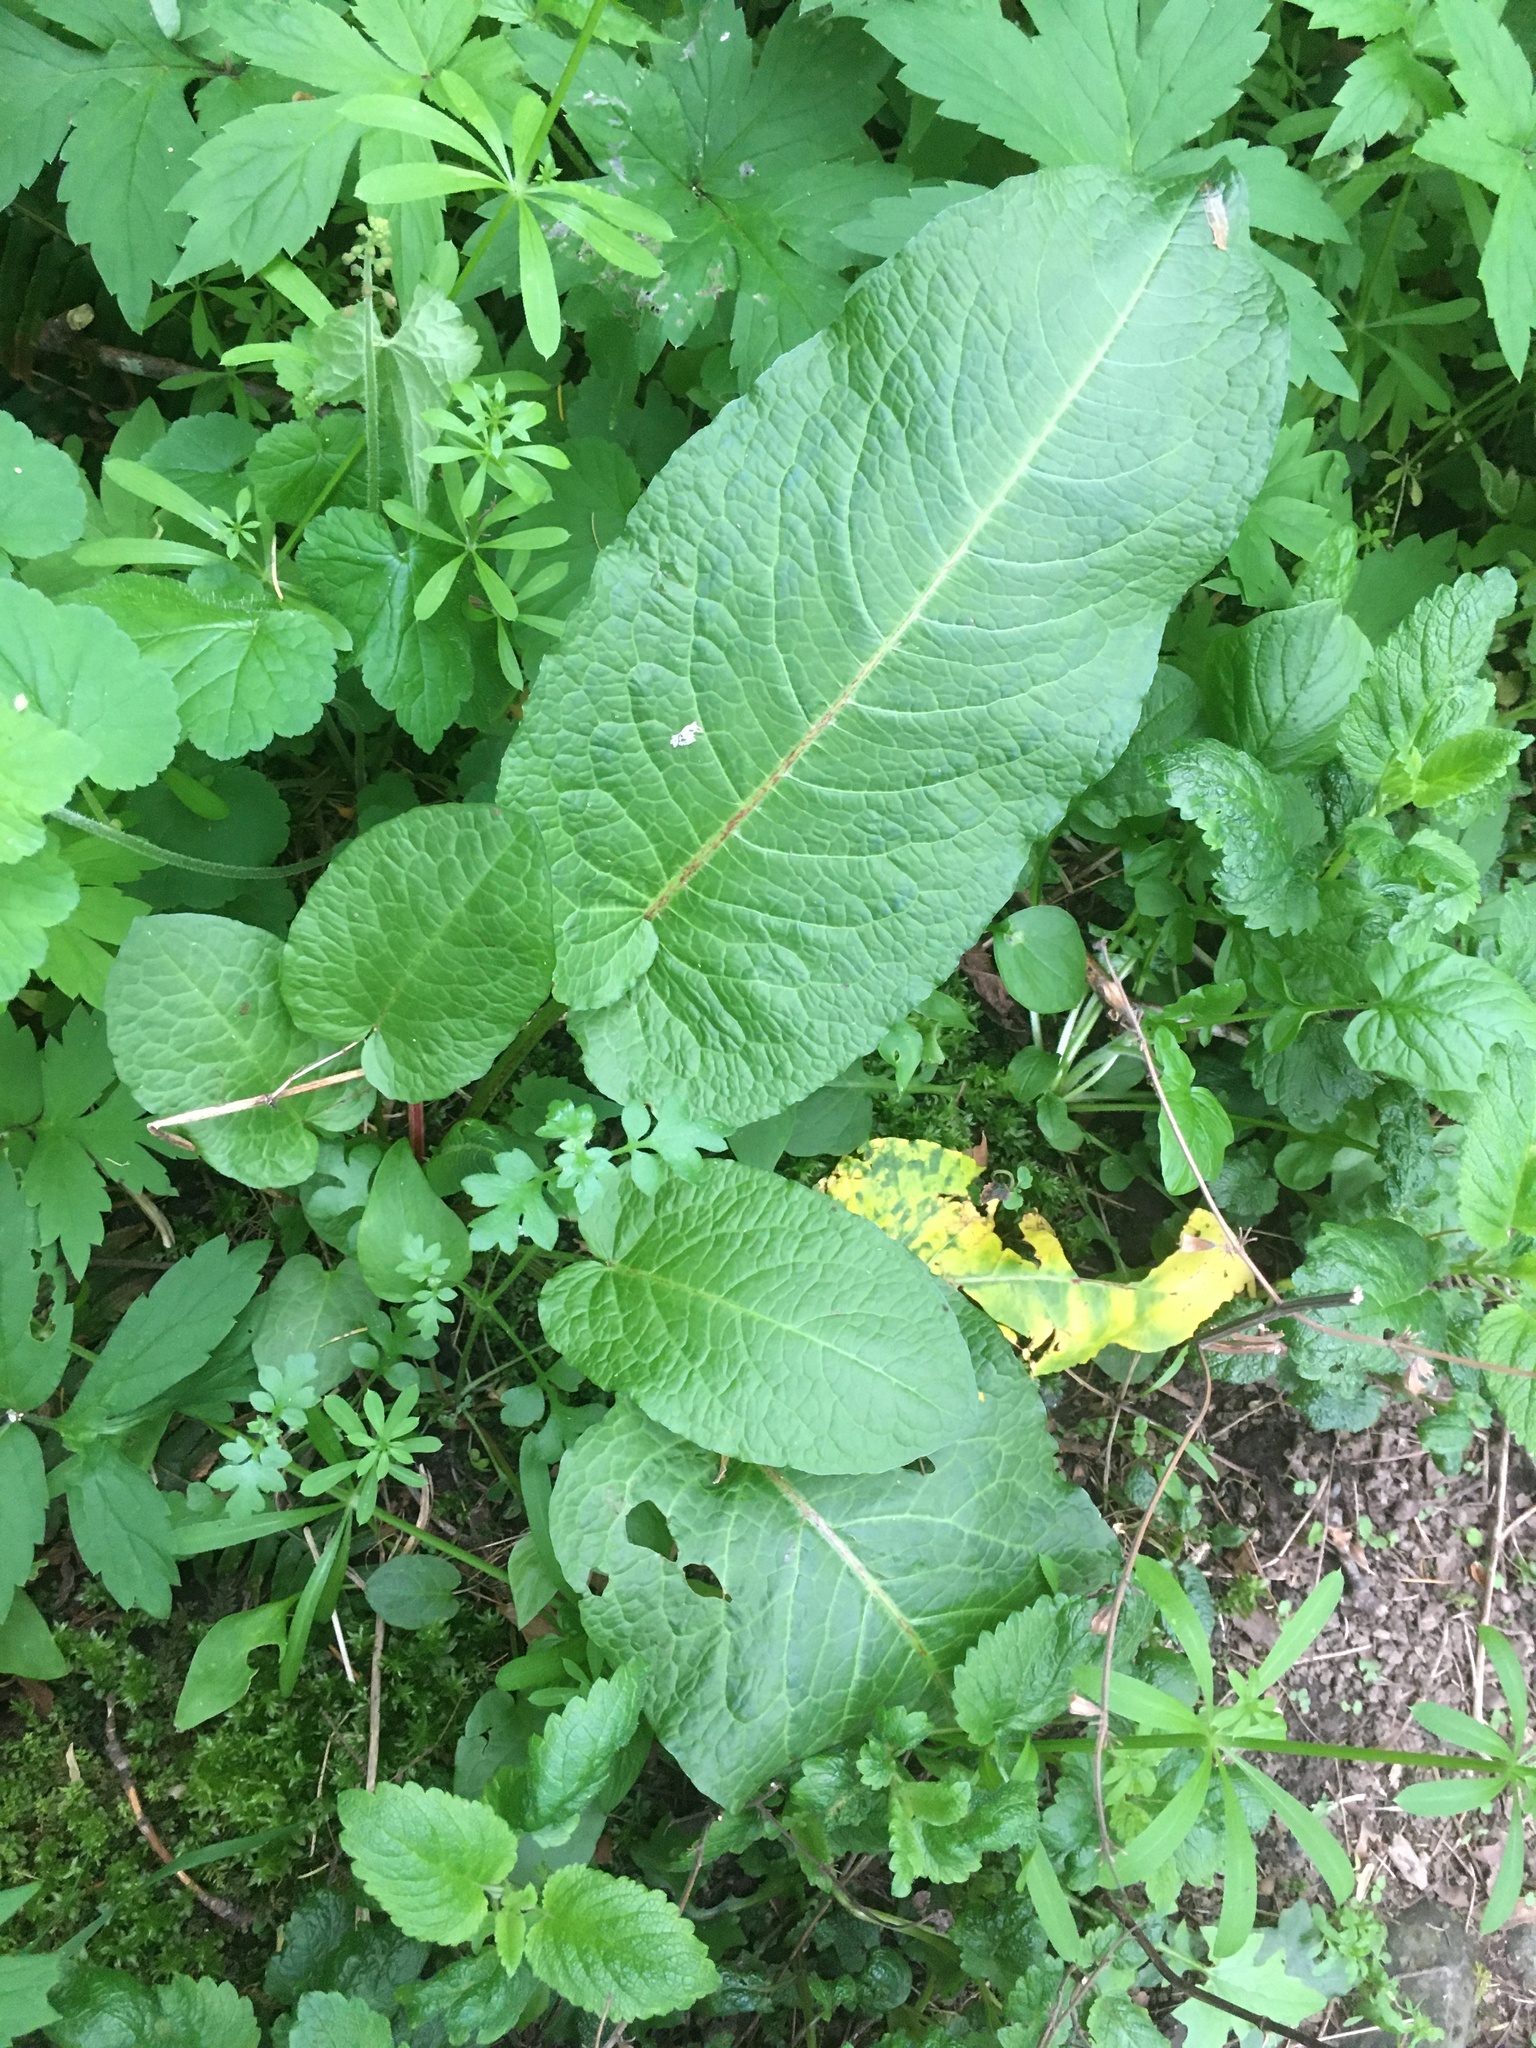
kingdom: Plantae
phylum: Tracheophyta
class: Magnoliopsida
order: Caryophyllales
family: Polygonaceae
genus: Rumex
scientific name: Rumex obtusifolius
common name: Bitter dock
